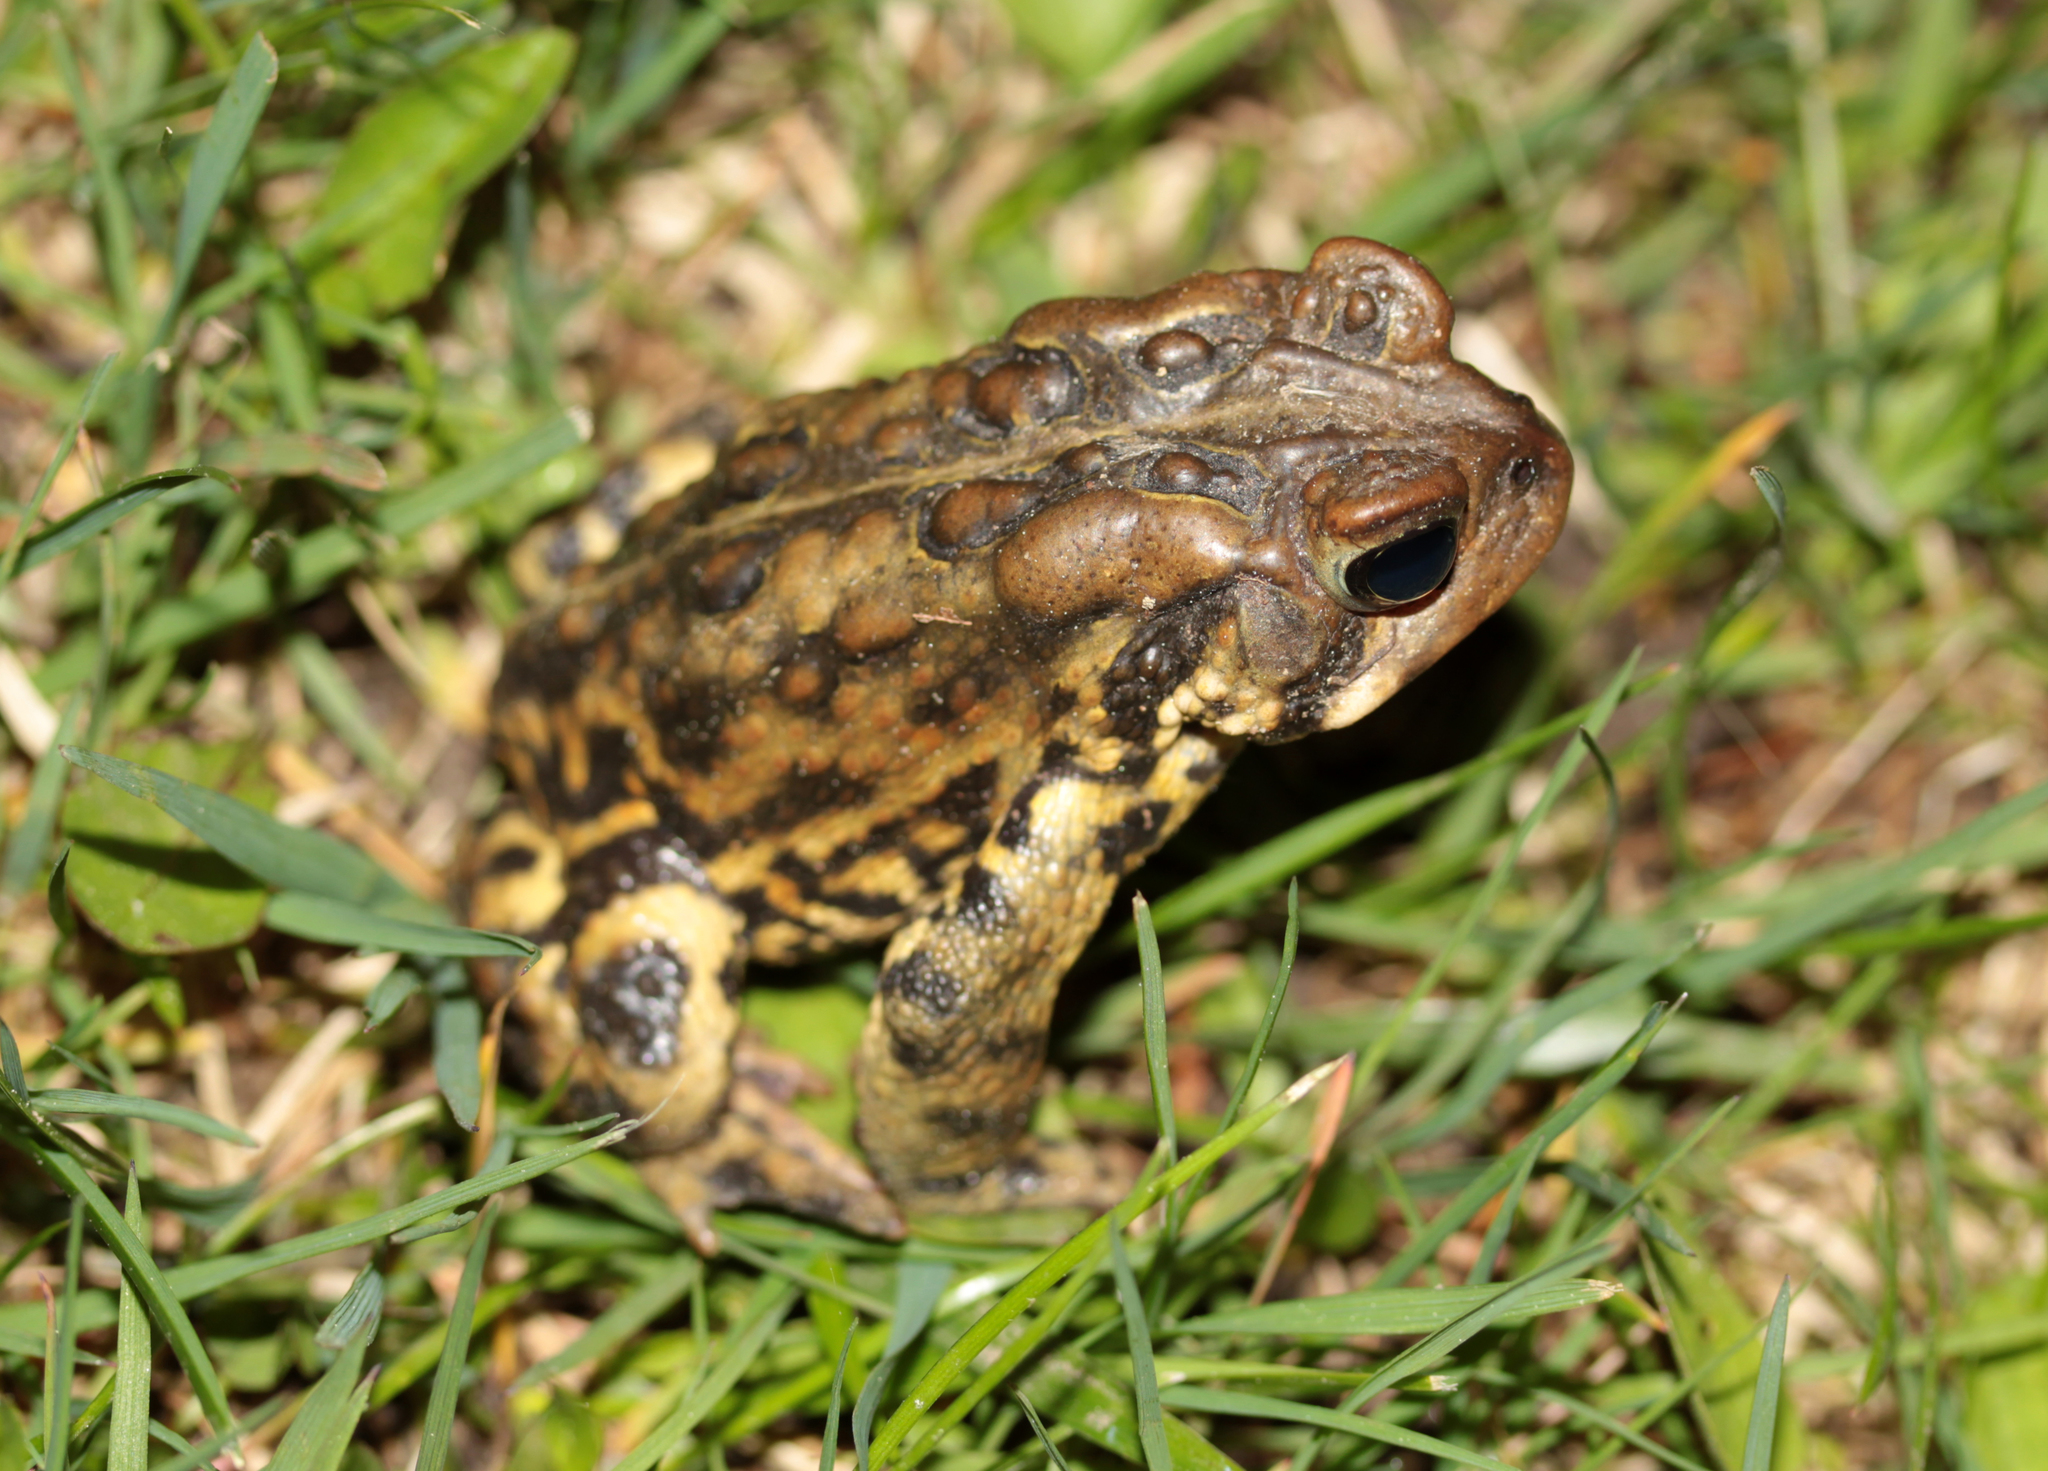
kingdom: Animalia
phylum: Chordata
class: Amphibia
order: Anura
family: Bufonidae
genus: Anaxyrus
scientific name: Anaxyrus americanus
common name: American toad
